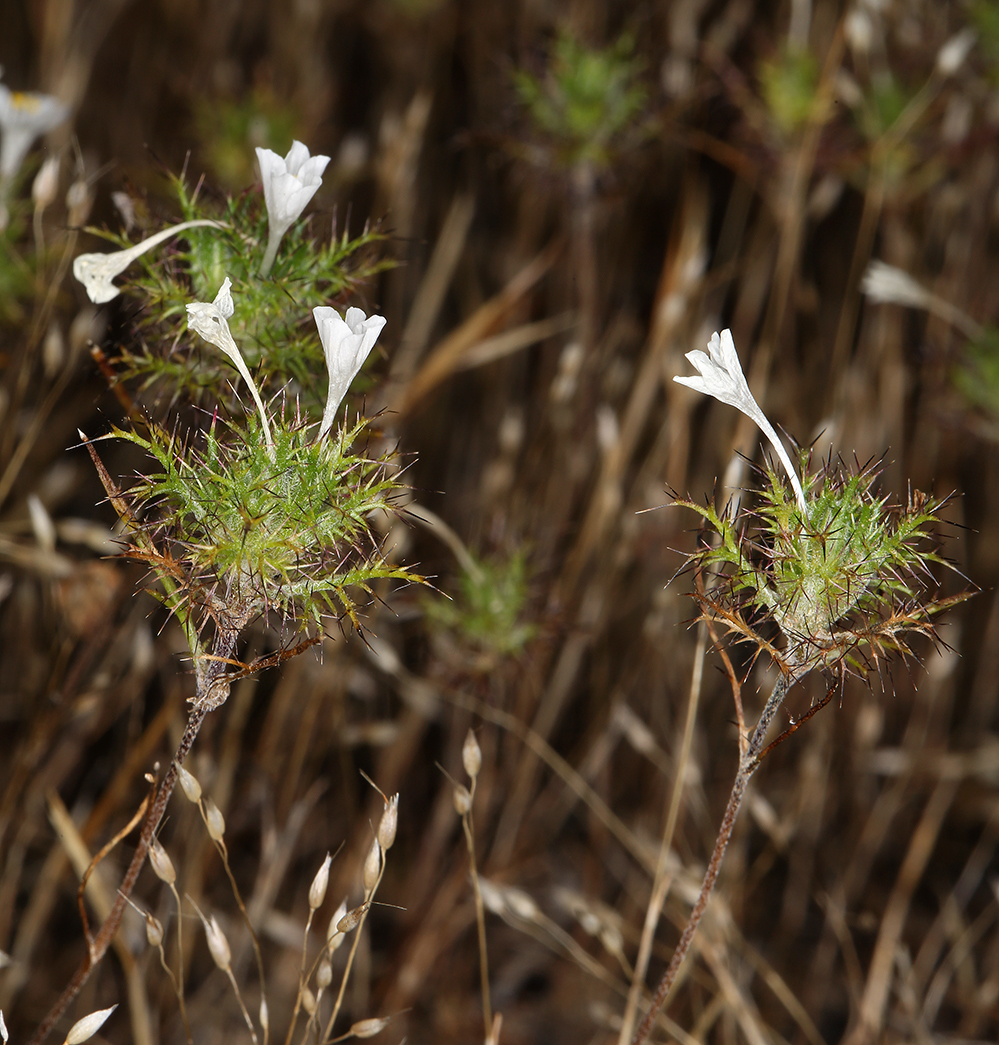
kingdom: Plantae
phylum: Tracheophyta
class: Magnoliopsida
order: Ericales
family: Polemoniaceae
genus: Navarretia
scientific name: Navarretia tagetina
